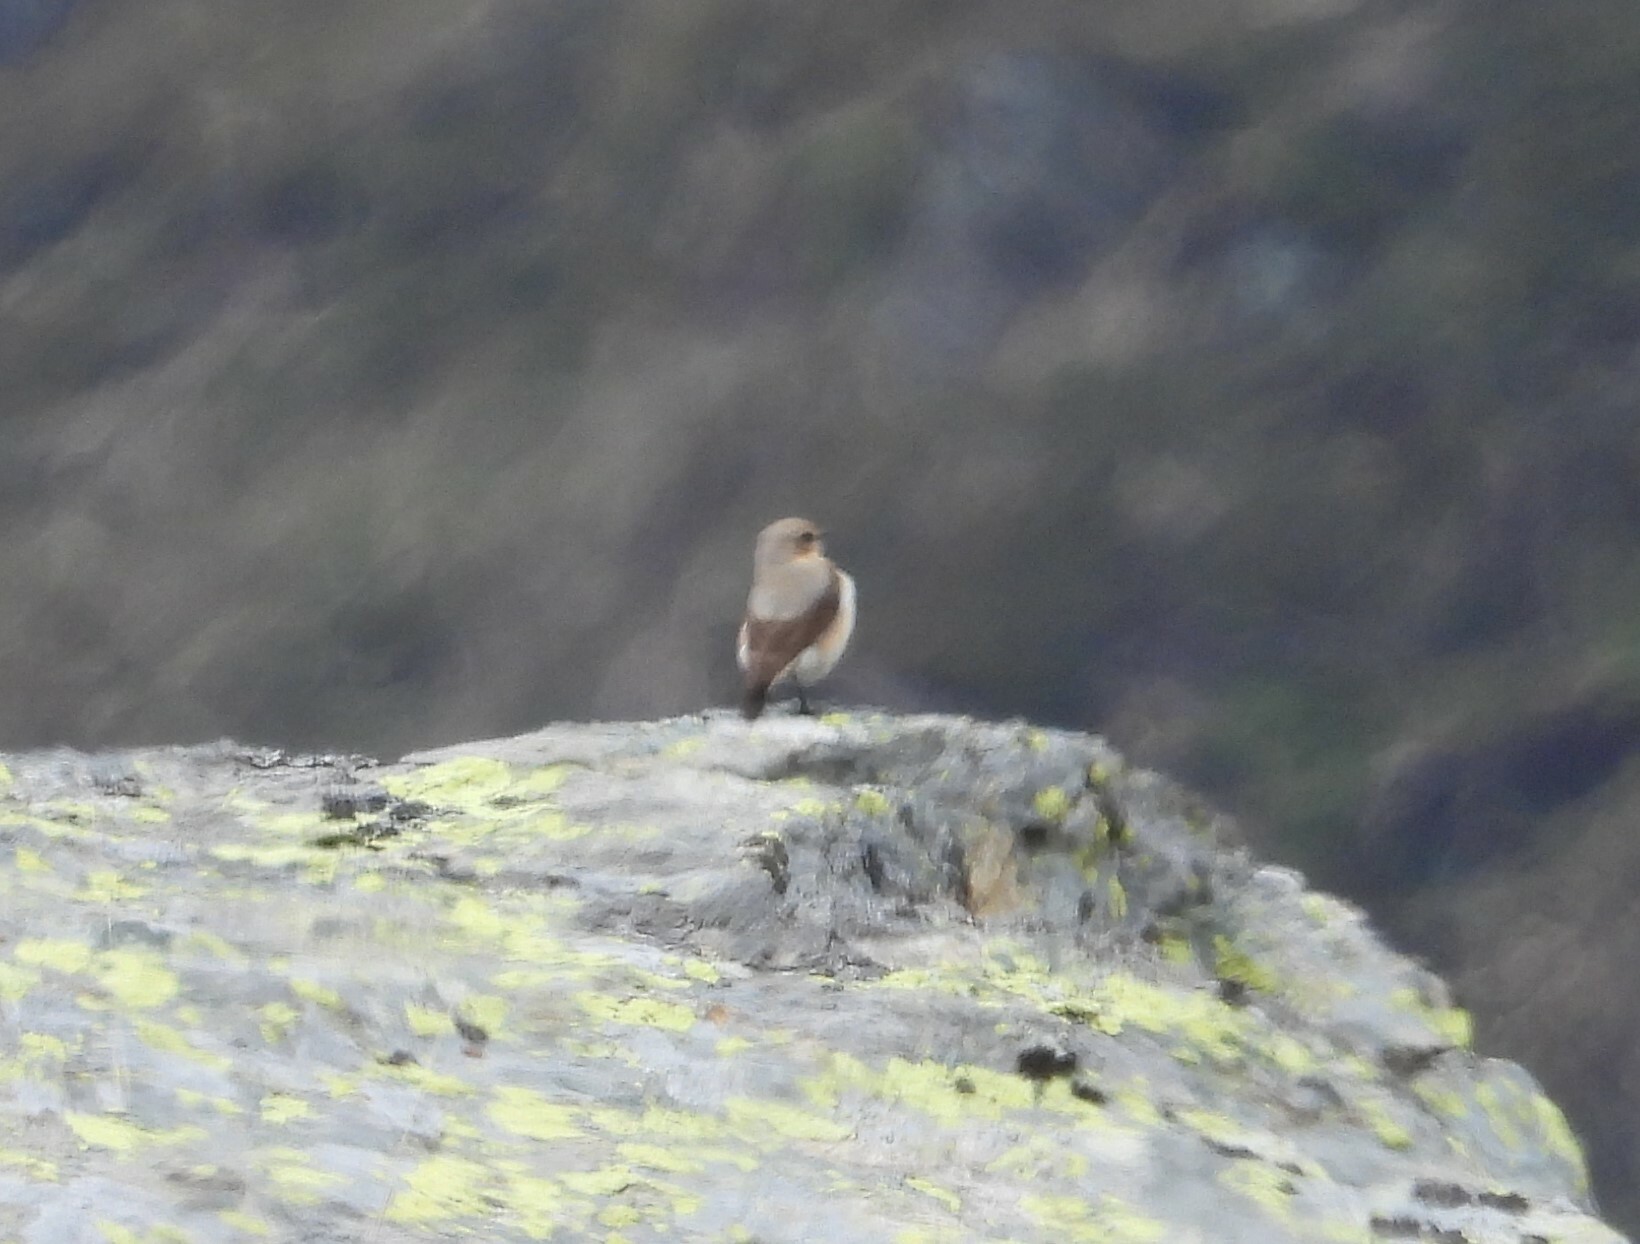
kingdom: Animalia
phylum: Chordata
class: Aves
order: Passeriformes
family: Muscicapidae
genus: Oenanthe
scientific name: Oenanthe oenanthe
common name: Northern wheatear
